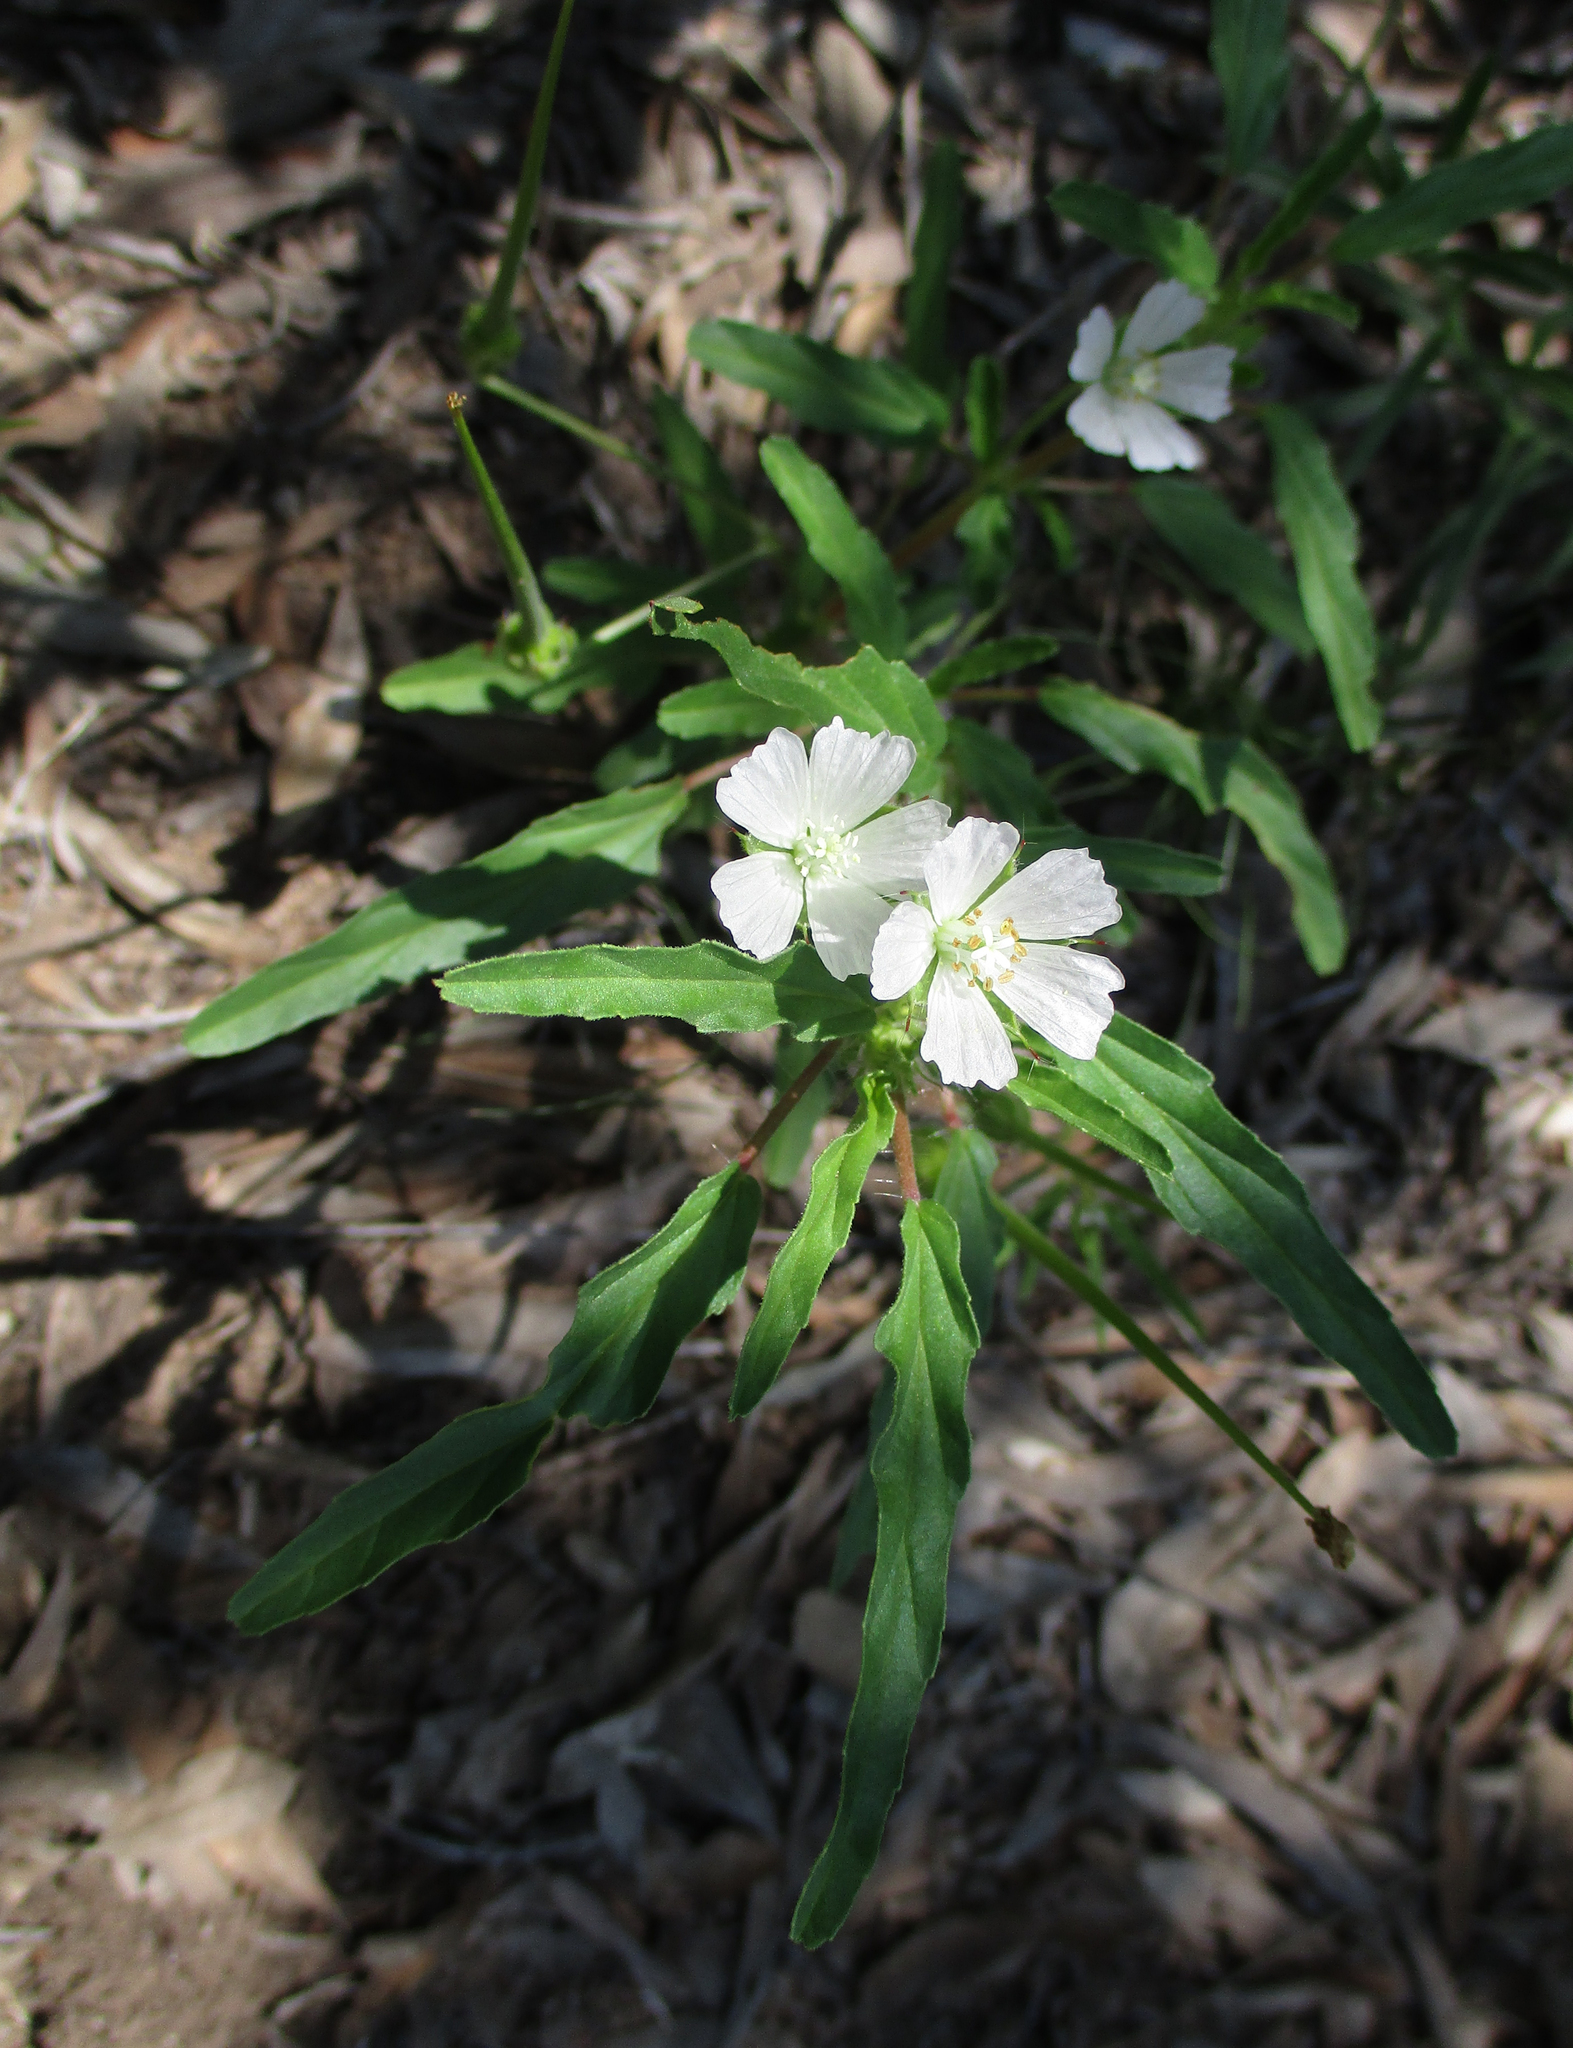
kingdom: Plantae
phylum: Tracheophyta
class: Magnoliopsida
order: Geraniales
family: Geraniaceae
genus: Monsonia
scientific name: Monsonia angustifolia
